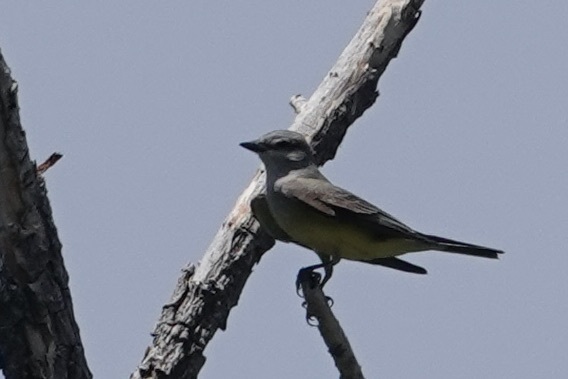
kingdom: Animalia
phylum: Chordata
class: Aves
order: Passeriformes
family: Tyrannidae
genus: Tyrannus
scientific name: Tyrannus verticalis
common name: Western kingbird
